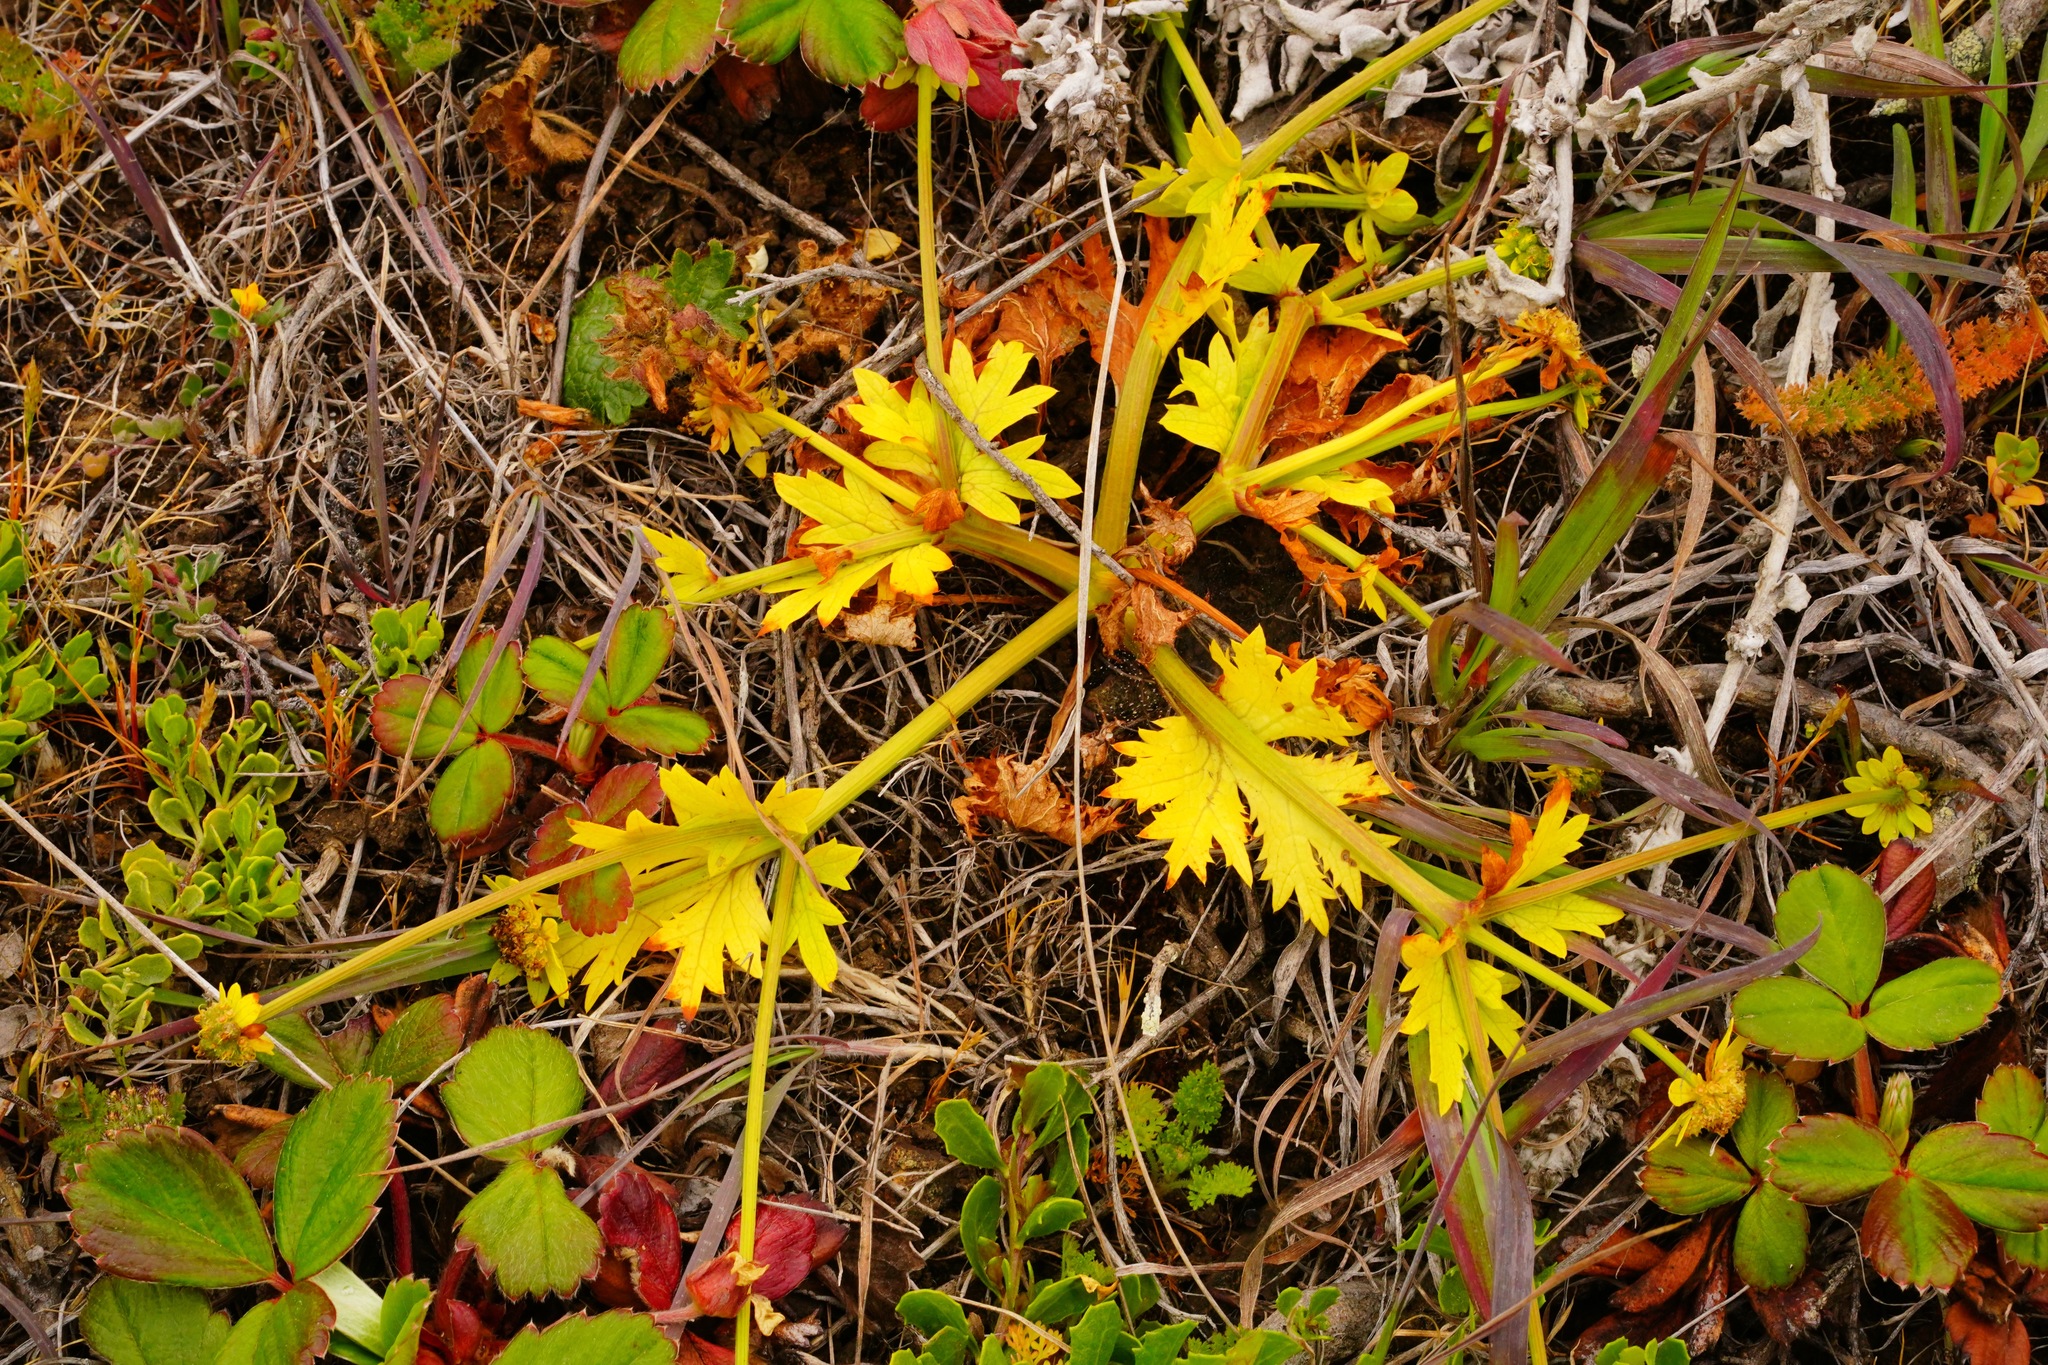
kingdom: Plantae
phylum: Tracheophyta
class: Magnoliopsida
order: Apiales
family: Apiaceae
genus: Sanicula
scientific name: Sanicula arctopoides
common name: Footsteps-of-spring
